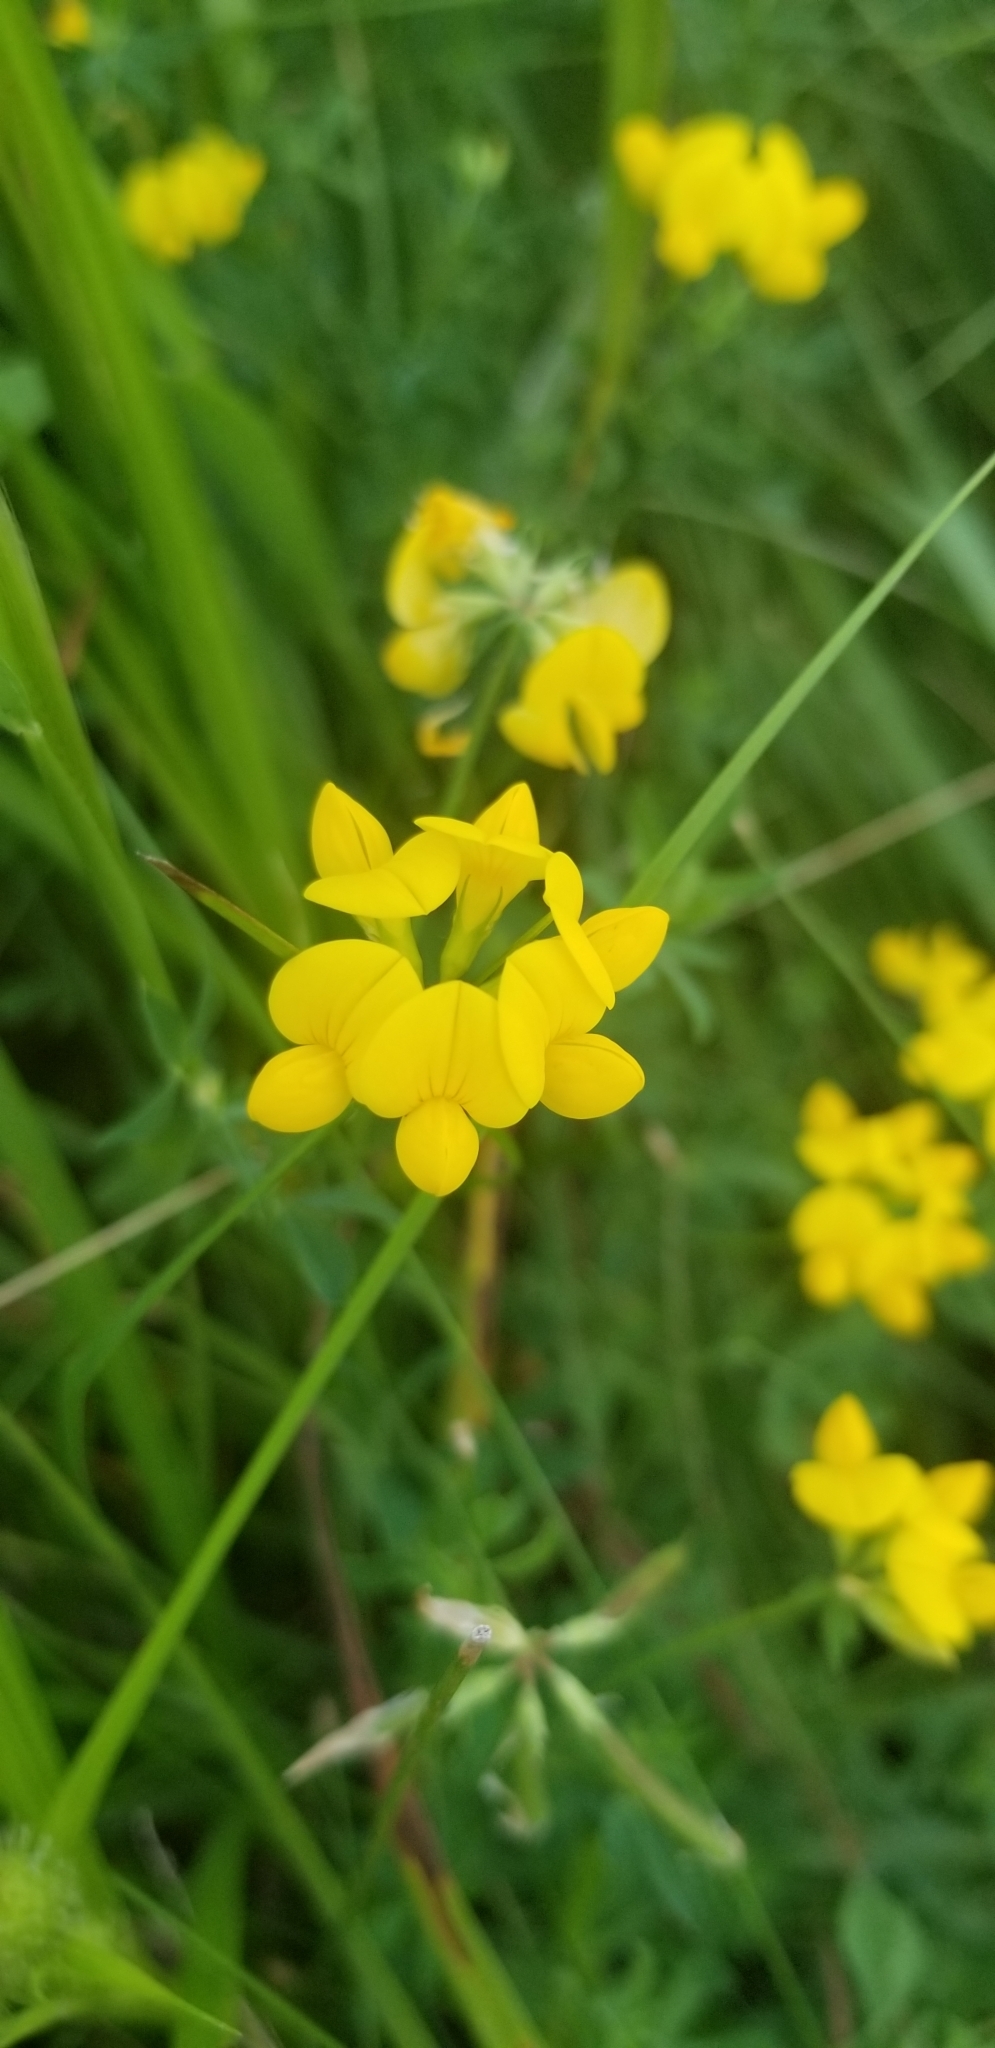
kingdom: Plantae
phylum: Tracheophyta
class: Magnoliopsida
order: Fabales
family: Fabaceae
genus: Lotus
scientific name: Lotus corniculatus
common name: Common bird's-foot-trefoil
